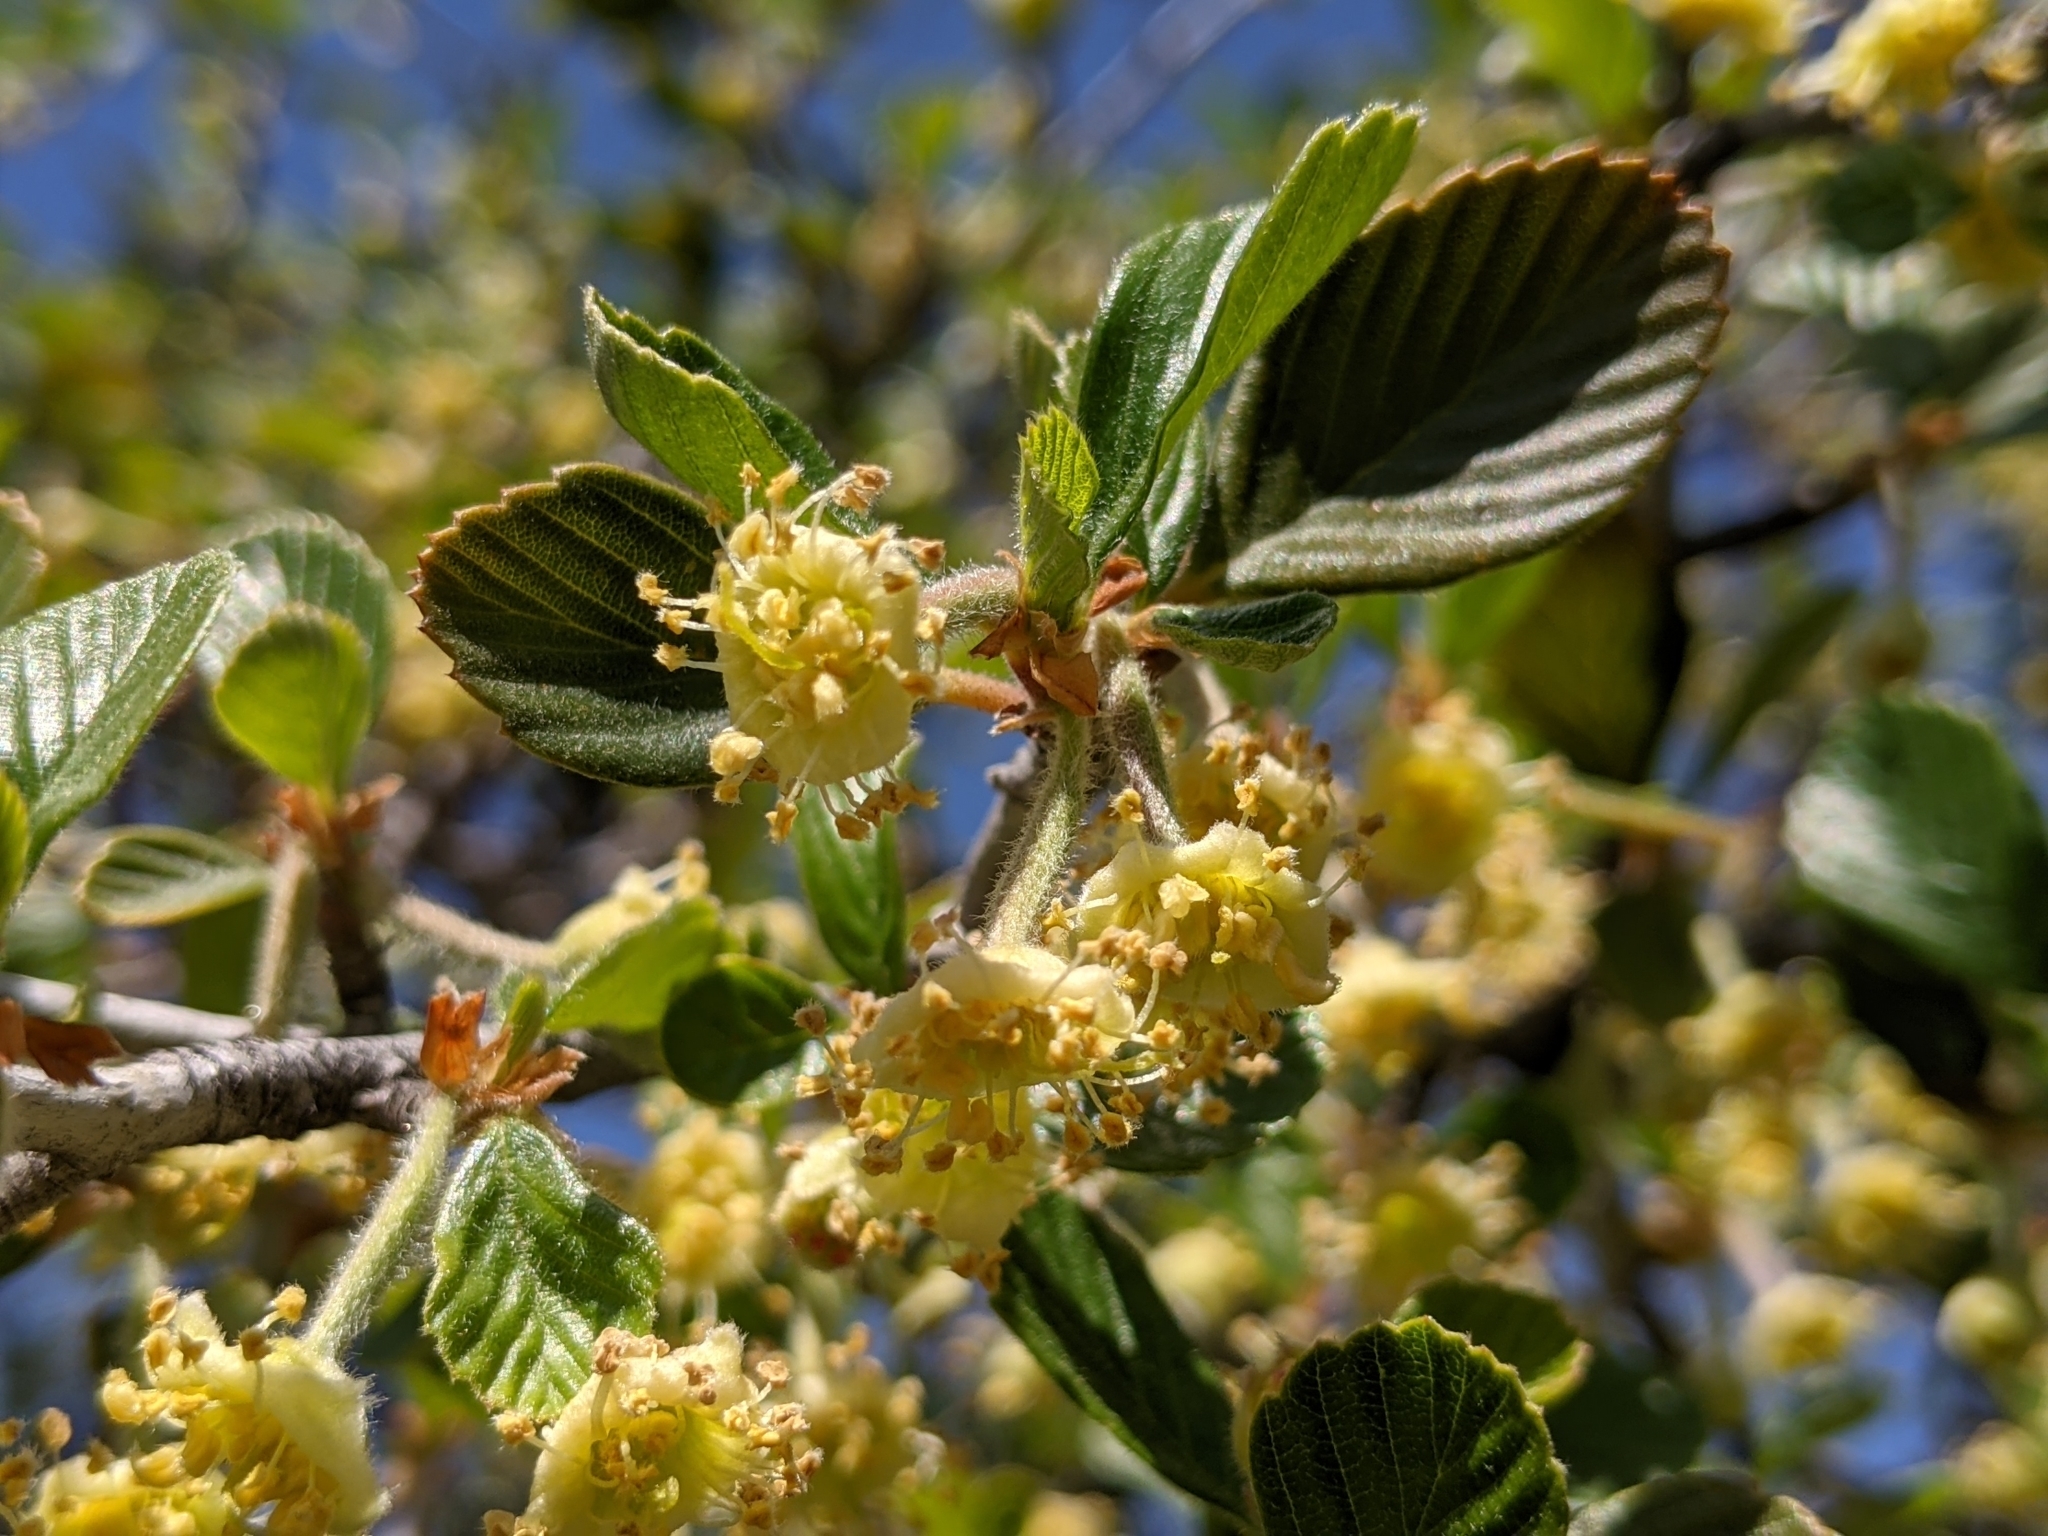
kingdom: Plantae
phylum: Tracheophyta
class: Magnoliopsida
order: Rosales
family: Rosaceae
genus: Cercocarpus
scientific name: Cercocarpus betuloides
